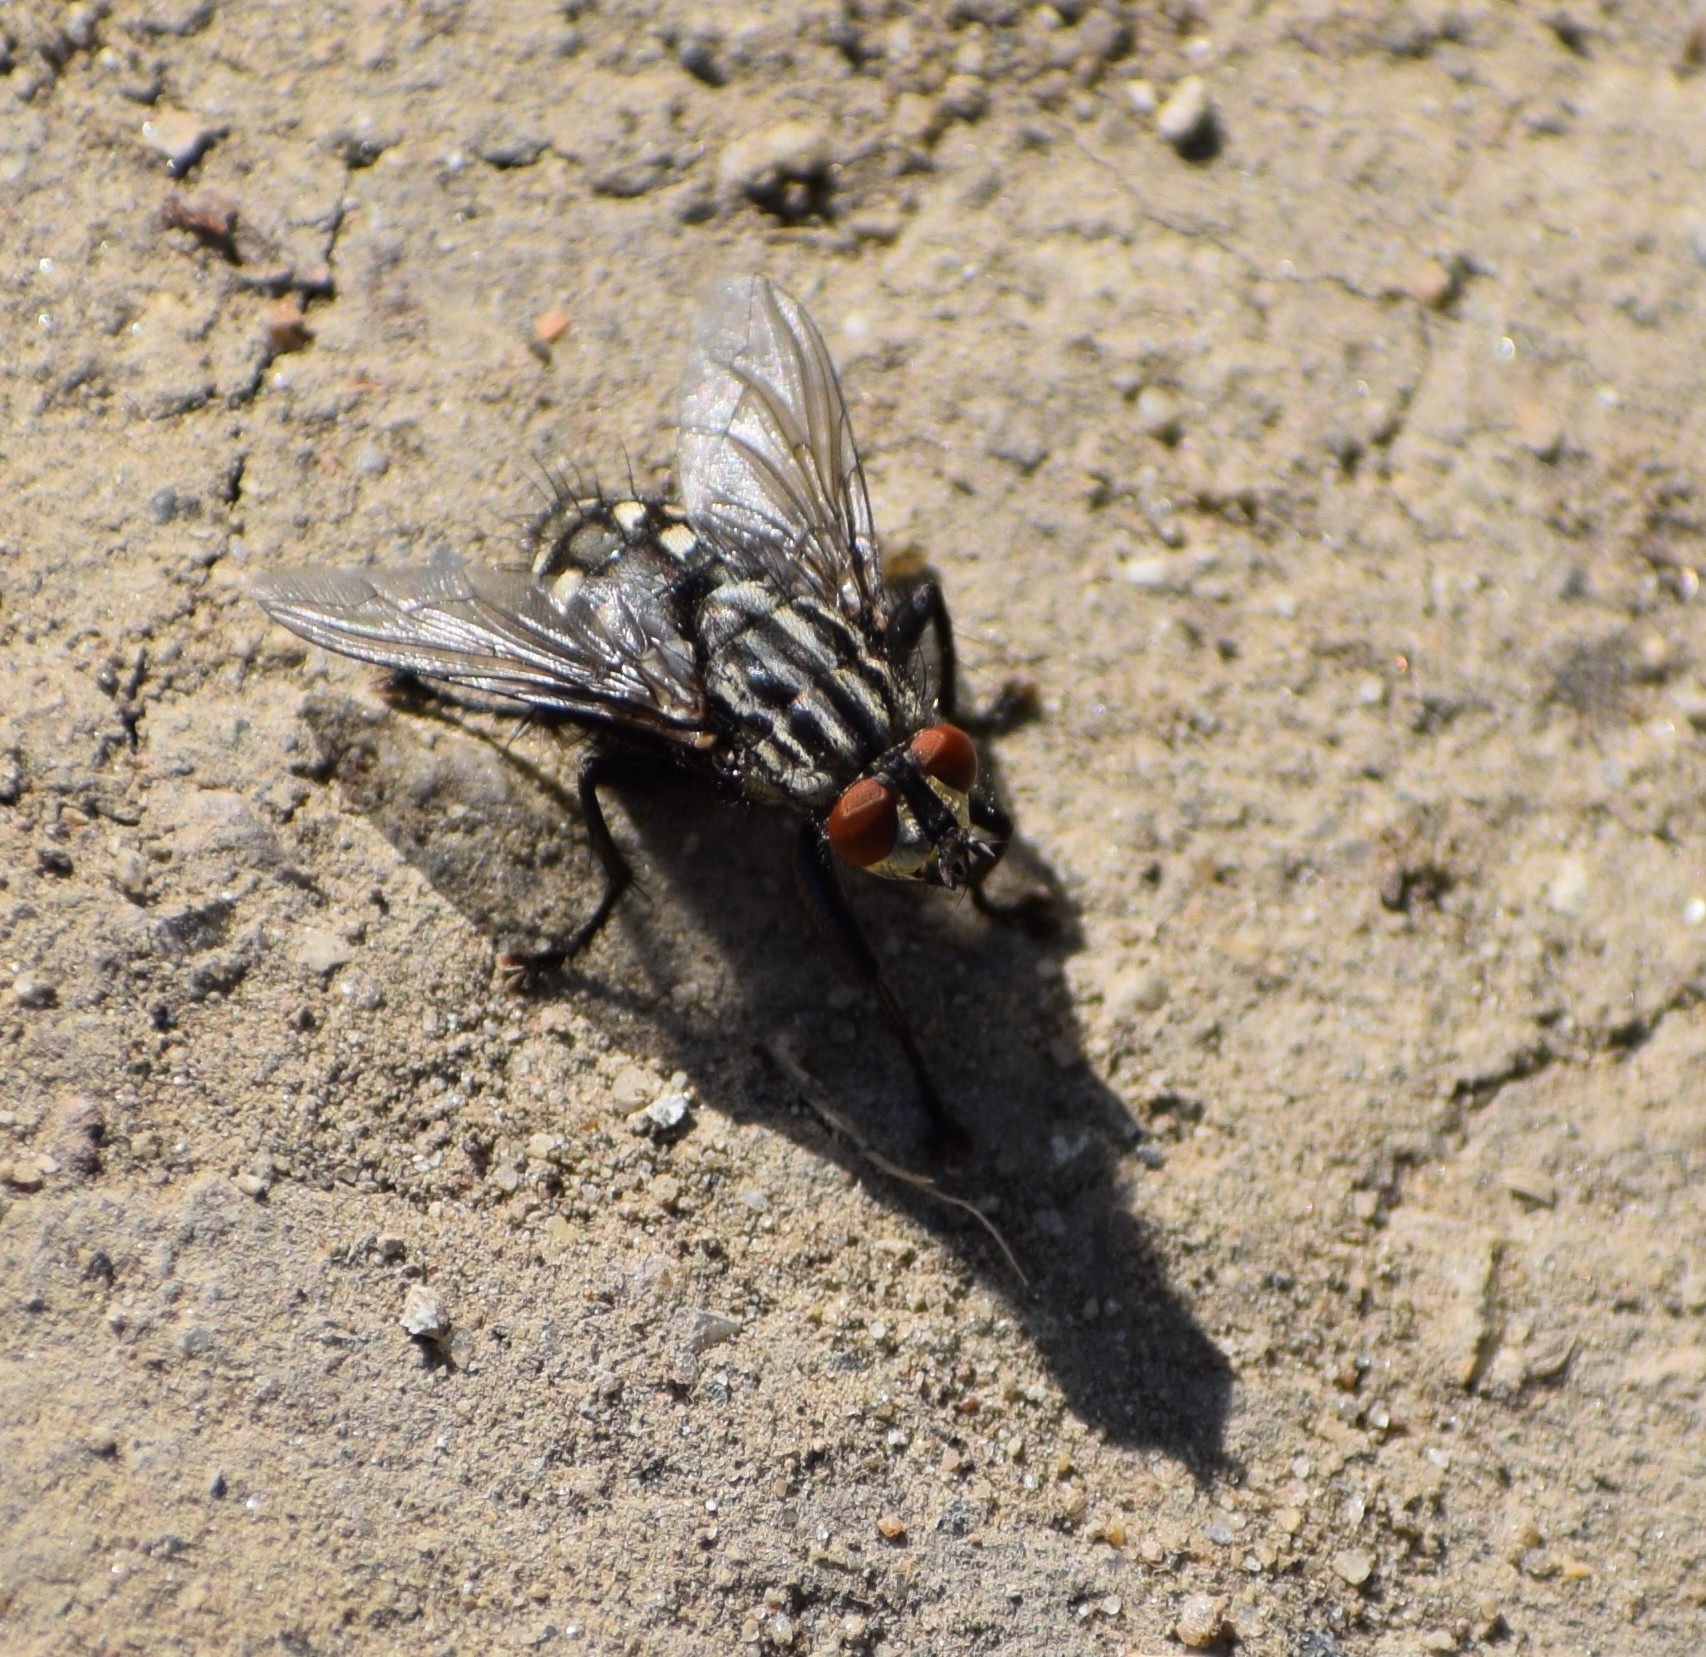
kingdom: Animalia
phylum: Arthropoda
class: Insecta
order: Diptera
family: Sarcophagidae
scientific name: Sarcophagidae
